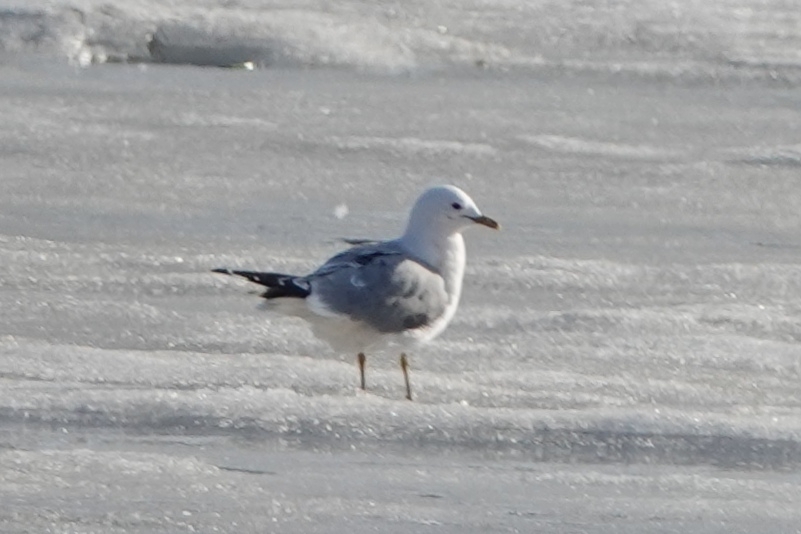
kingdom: Animalia
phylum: Chordata
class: Aves
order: Charadriiformes
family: Laridae
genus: Larus
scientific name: Larus canus
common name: Mew gull
